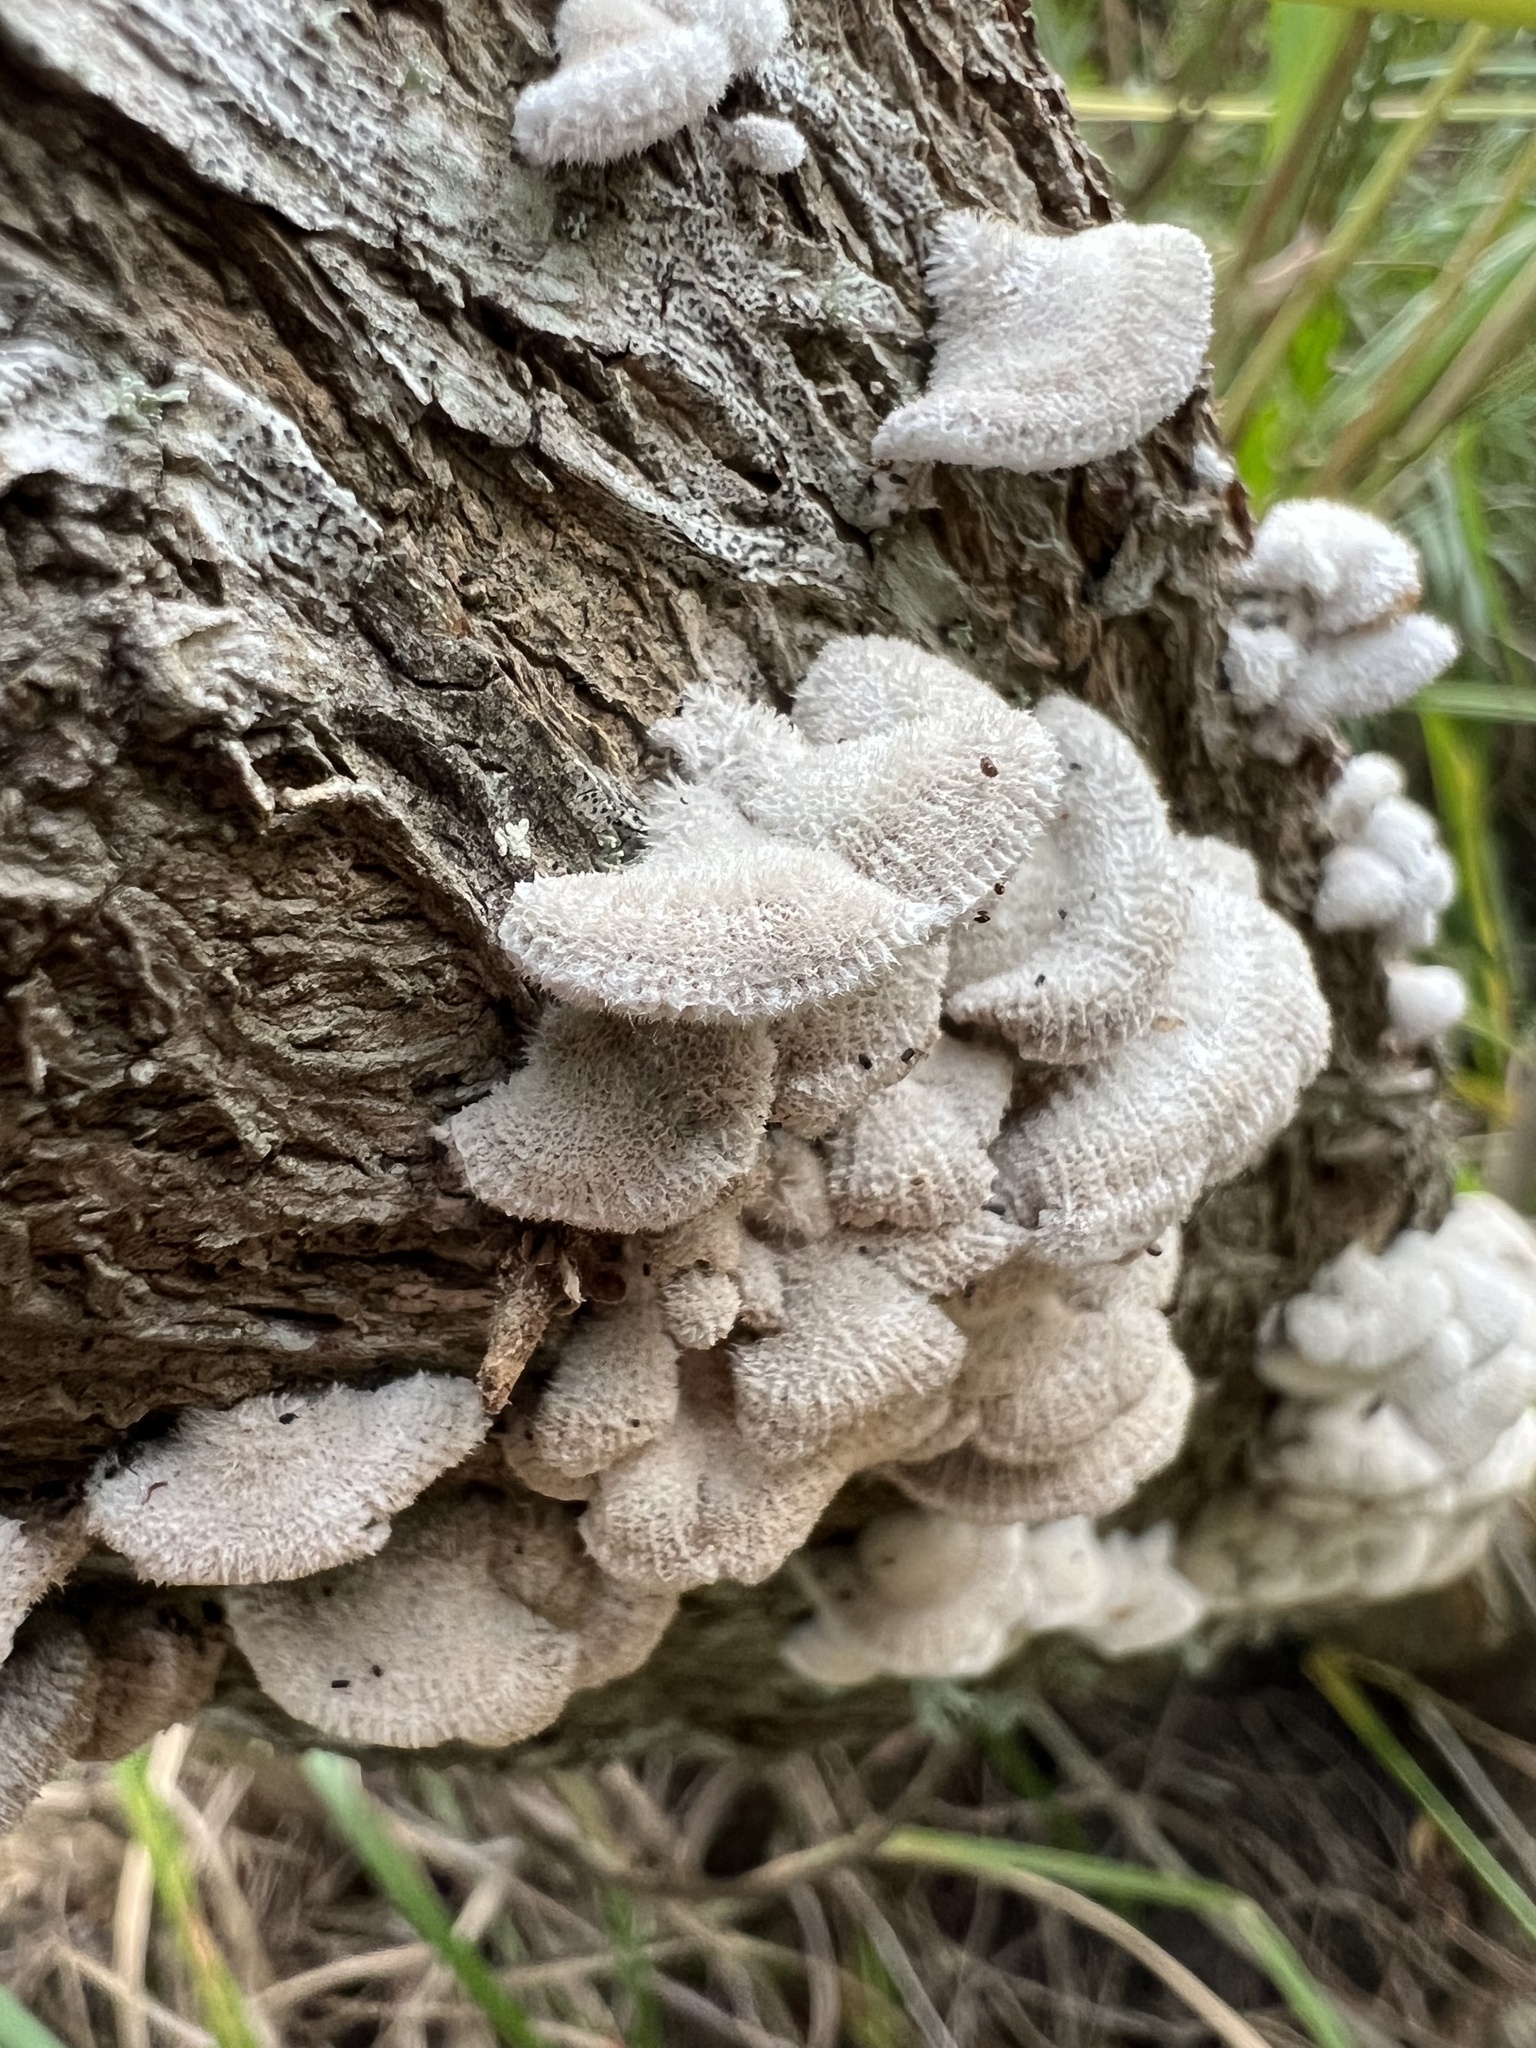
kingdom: Fungi
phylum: Basidiomycota
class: Agaricomycetes
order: Agaricales
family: Schizophyllaceae
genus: Schizophyllum
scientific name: Schizophyllum commune
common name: Common porecrust
